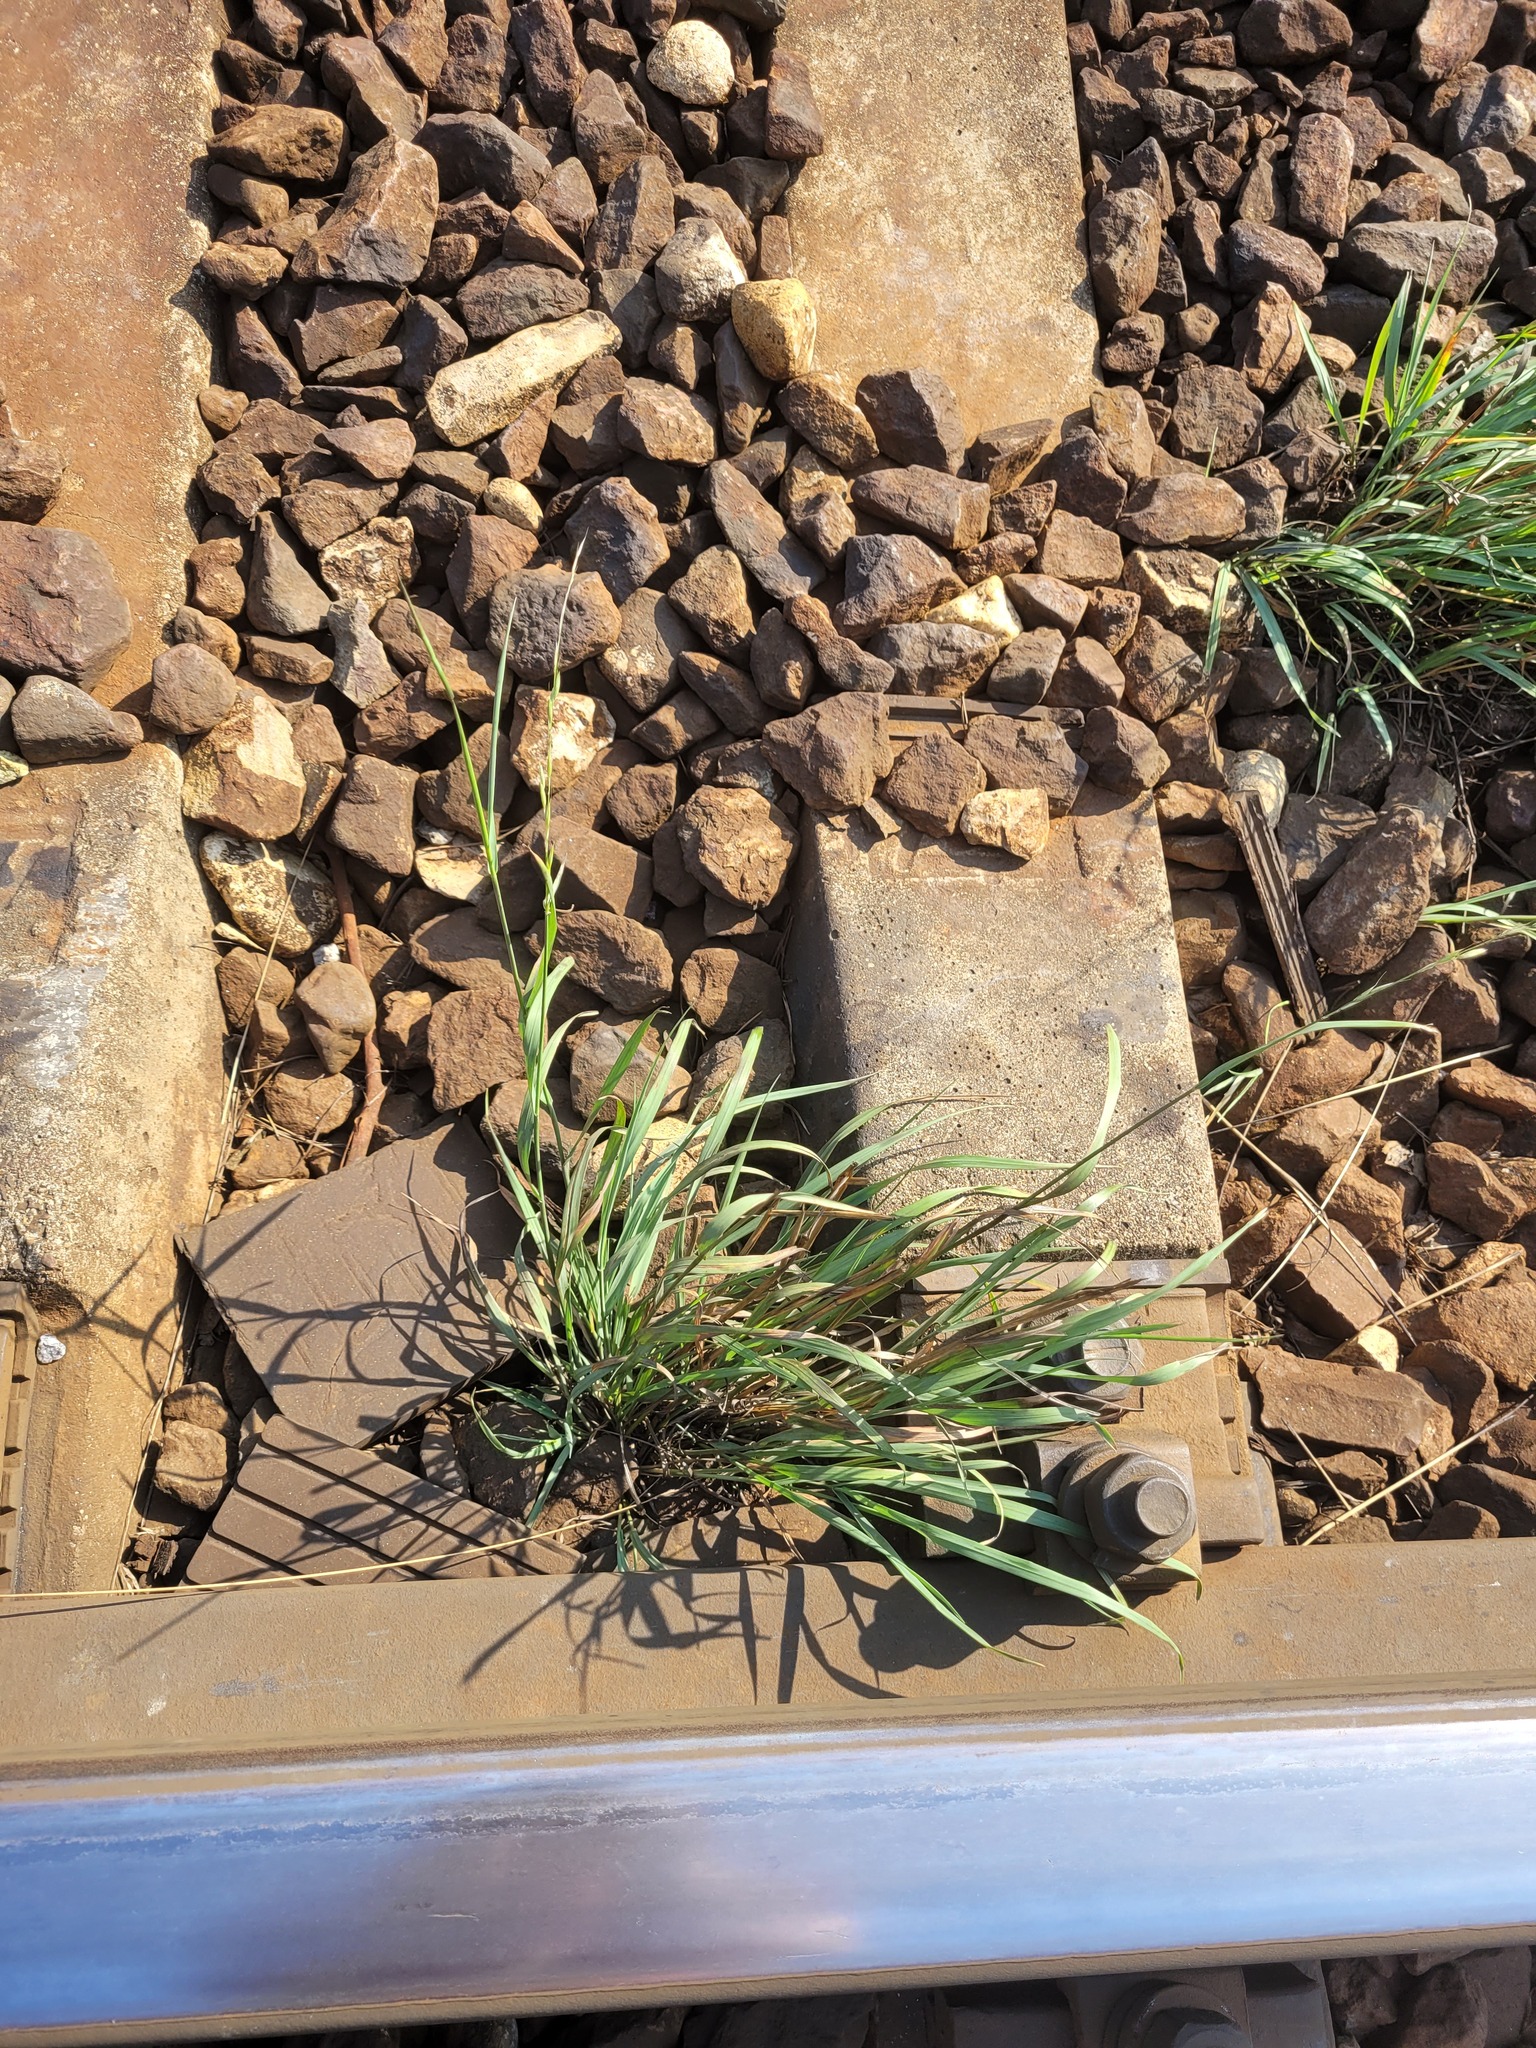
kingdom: Plantae
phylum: Tracheophyta
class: Liliopsida
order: Poales
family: Poaceae
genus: Arrhenatherum
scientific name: Arrhenatherum elatius
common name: Tall oatgrass
